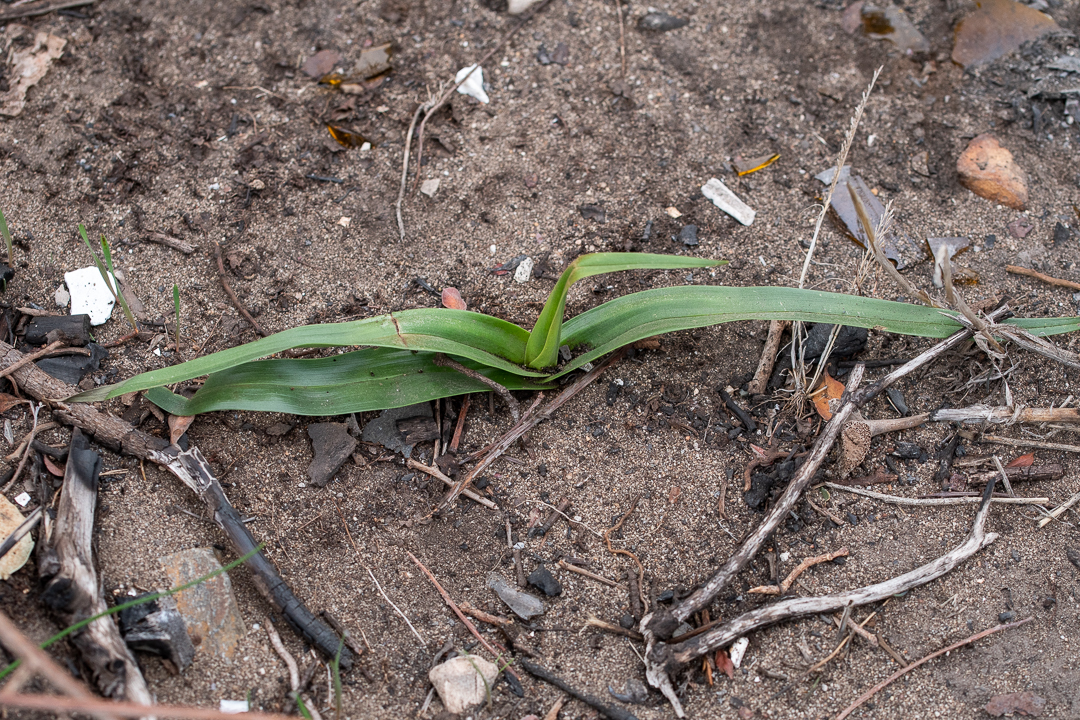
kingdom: Plantae
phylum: Tracheophyta
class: Liliopsida
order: Liliales
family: Colchicaceae
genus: Colchicum
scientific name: Colchicum eucomoides
